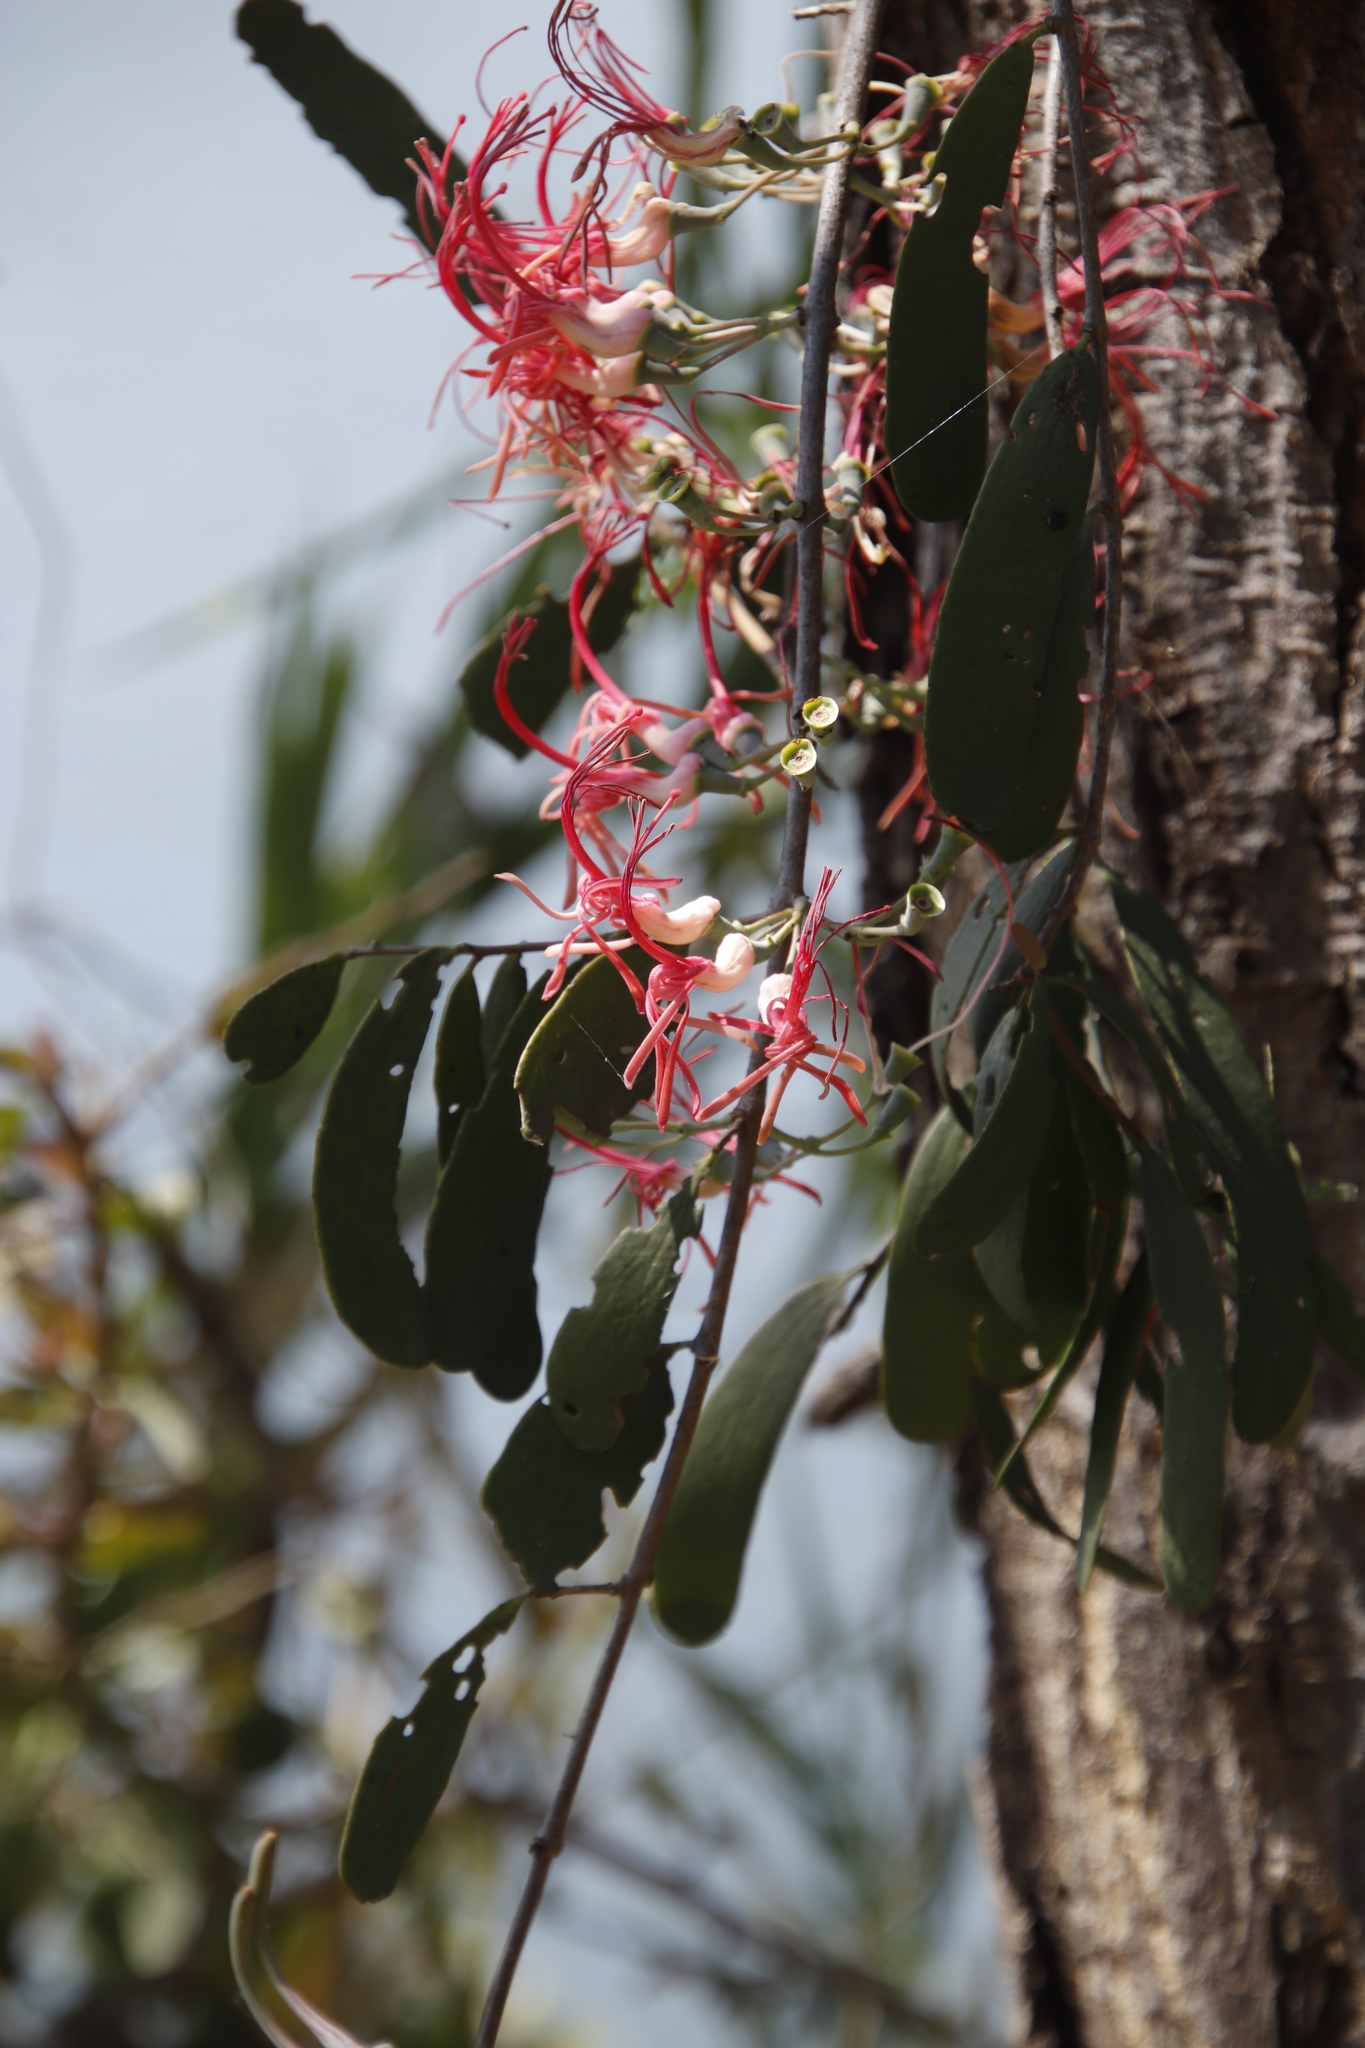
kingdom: Plantae
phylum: Tracheophyta
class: Magnoliopsida
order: Santalales
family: Loranthaceae
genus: Plicosepalus
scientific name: Plicosepalus kalachariensis
